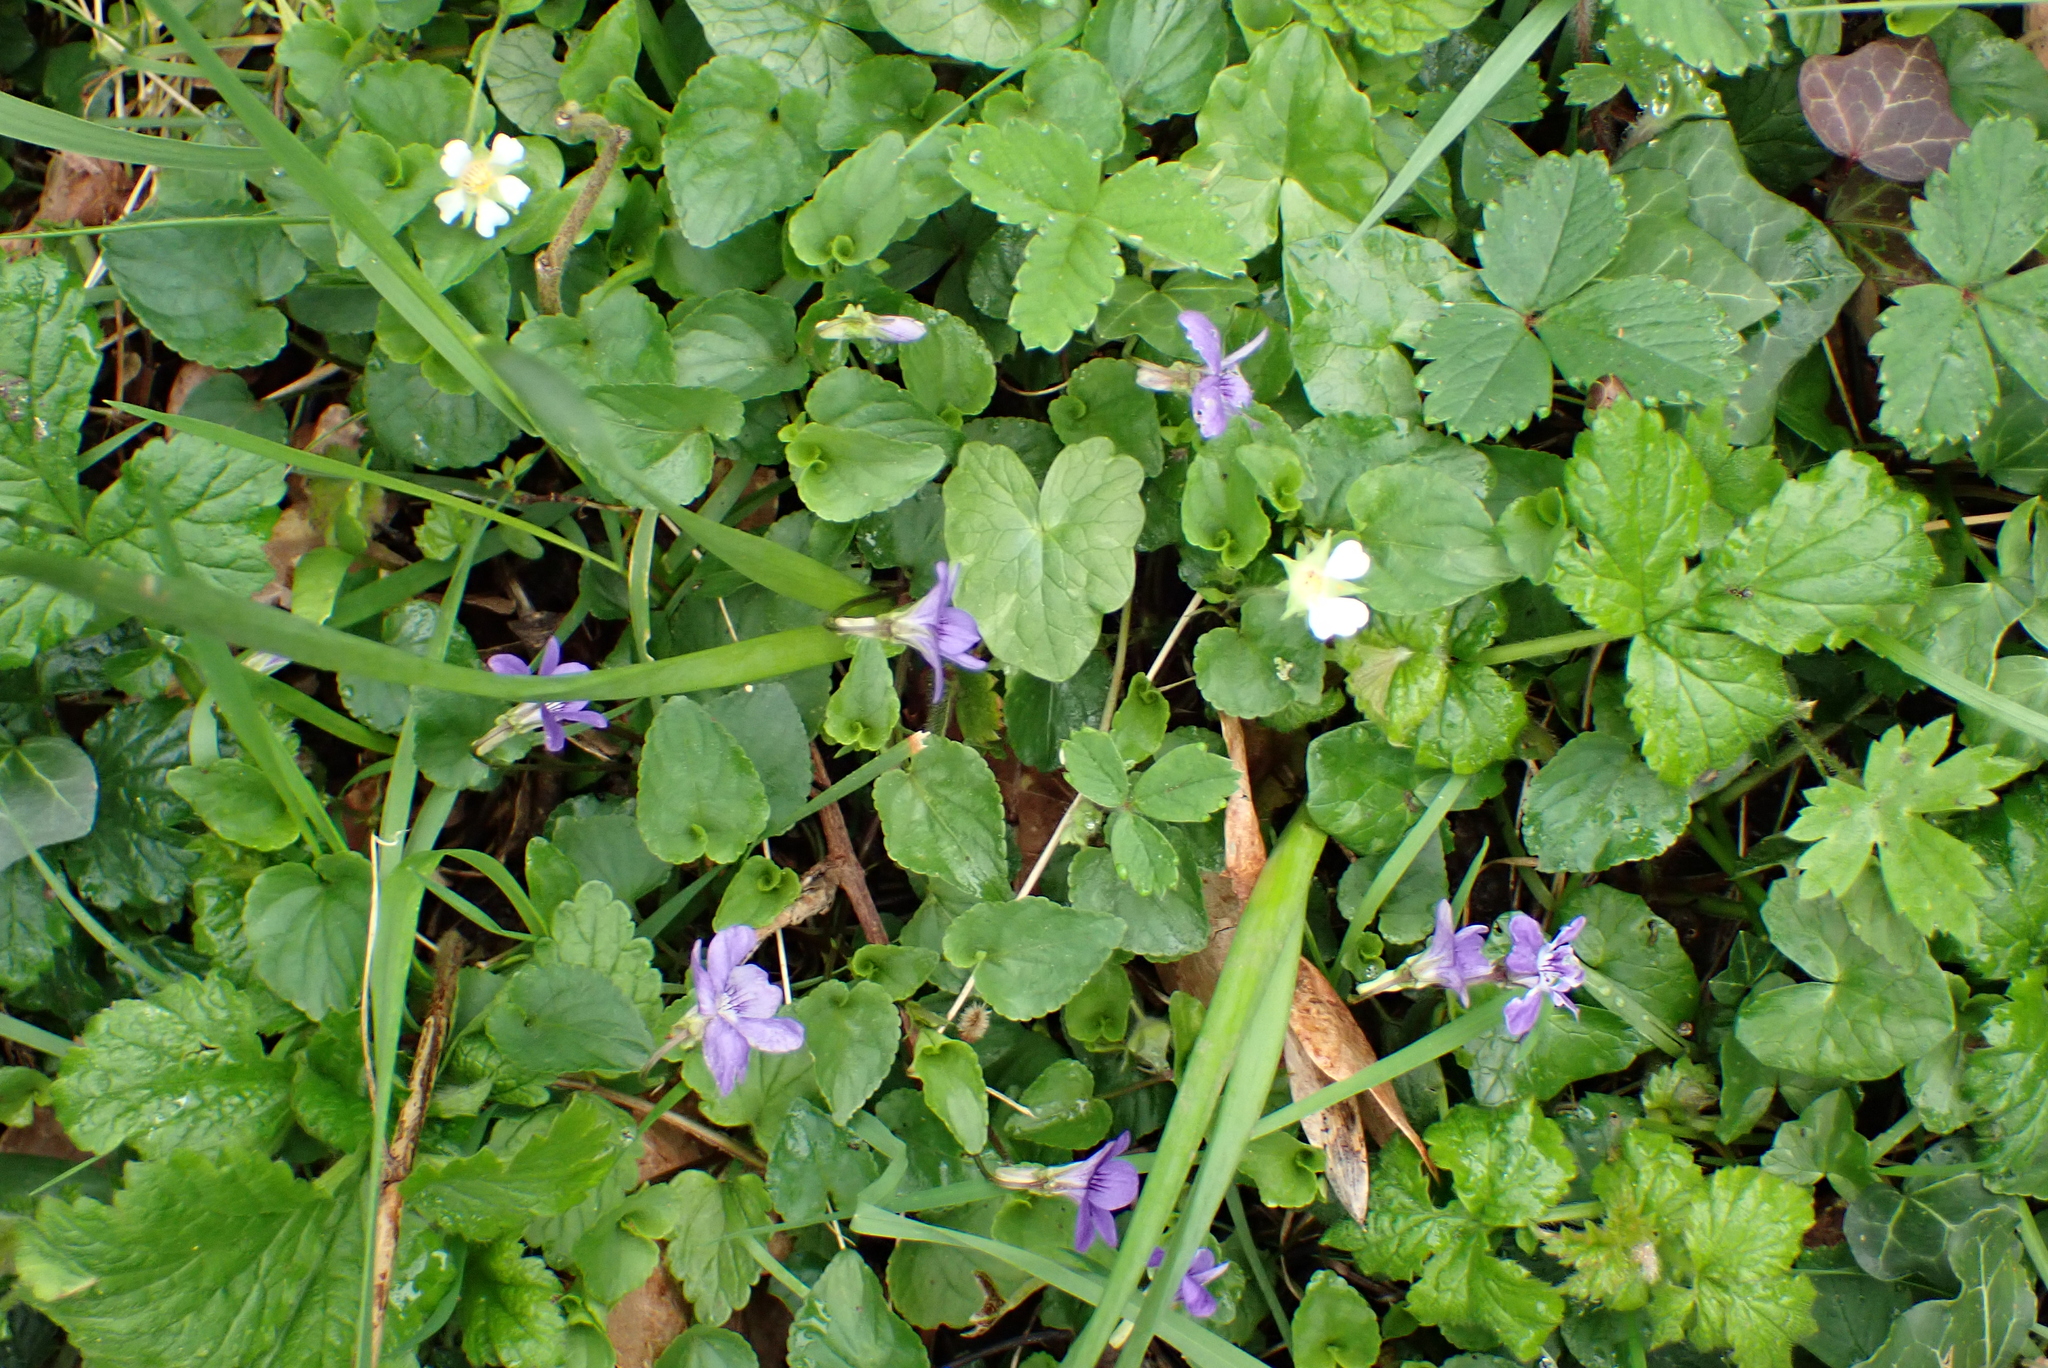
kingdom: Plantae
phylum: Tracheophyta
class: Magnoliopsida
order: Malpighiales
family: Violaceae
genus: Viola
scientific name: Viola riviniana
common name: Common dog-violet
